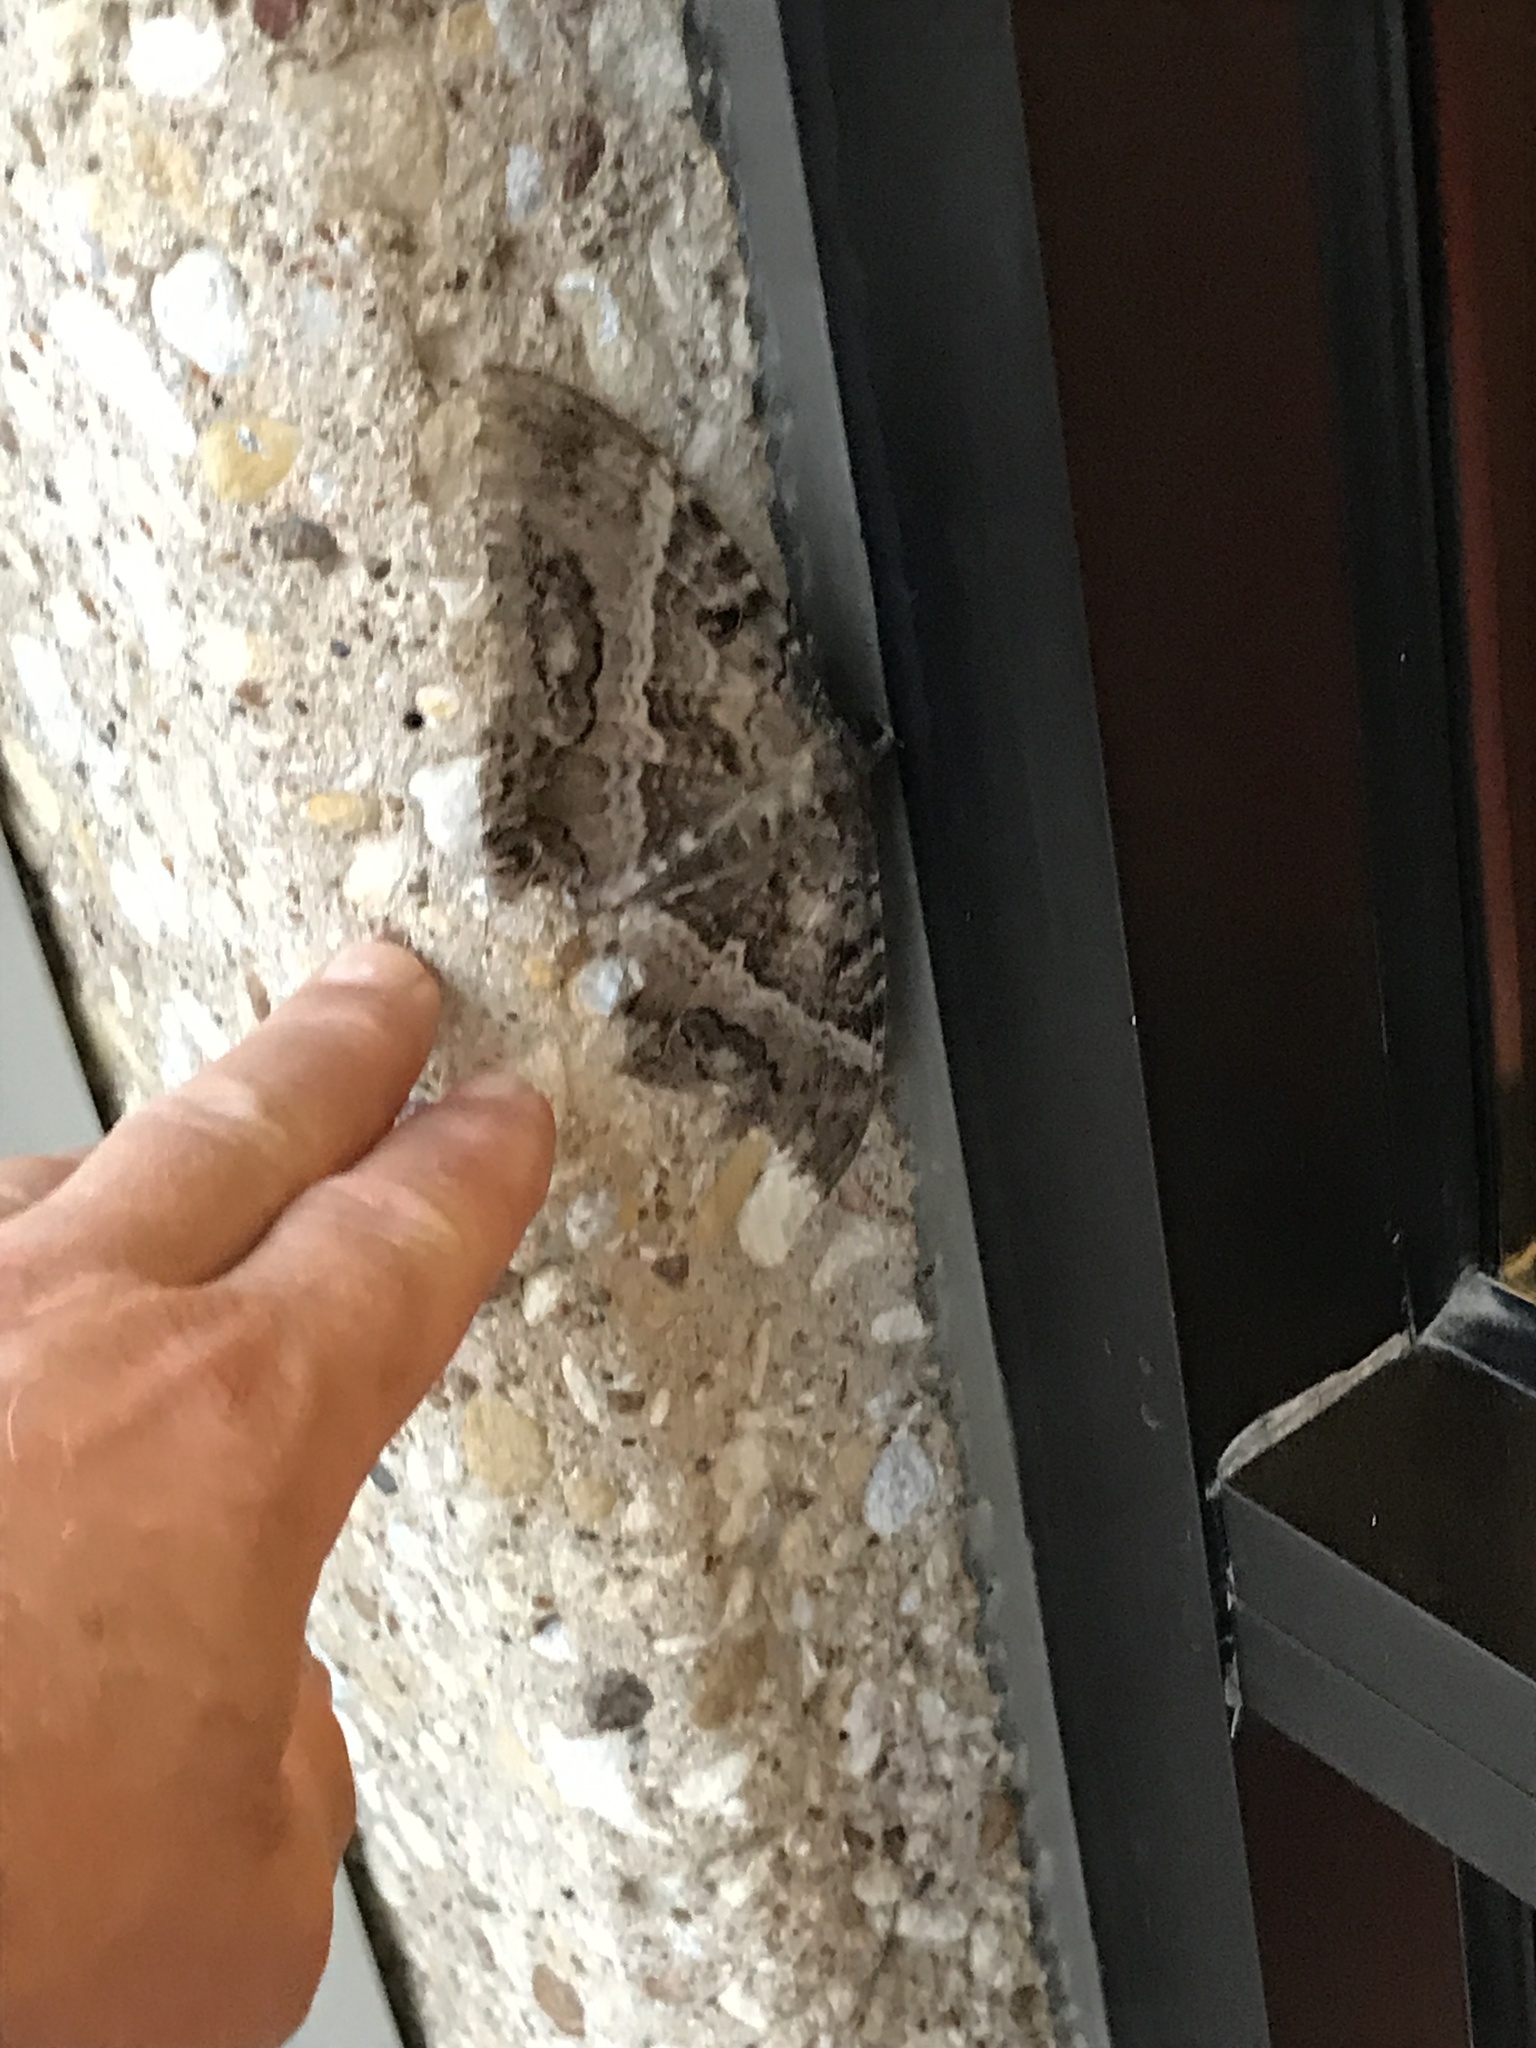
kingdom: Animalia
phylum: Arthropoda
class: Insecta
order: Lepidoptera
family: Erebidae
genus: Ascalapha
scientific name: Ascalapha odorata
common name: Black witch
